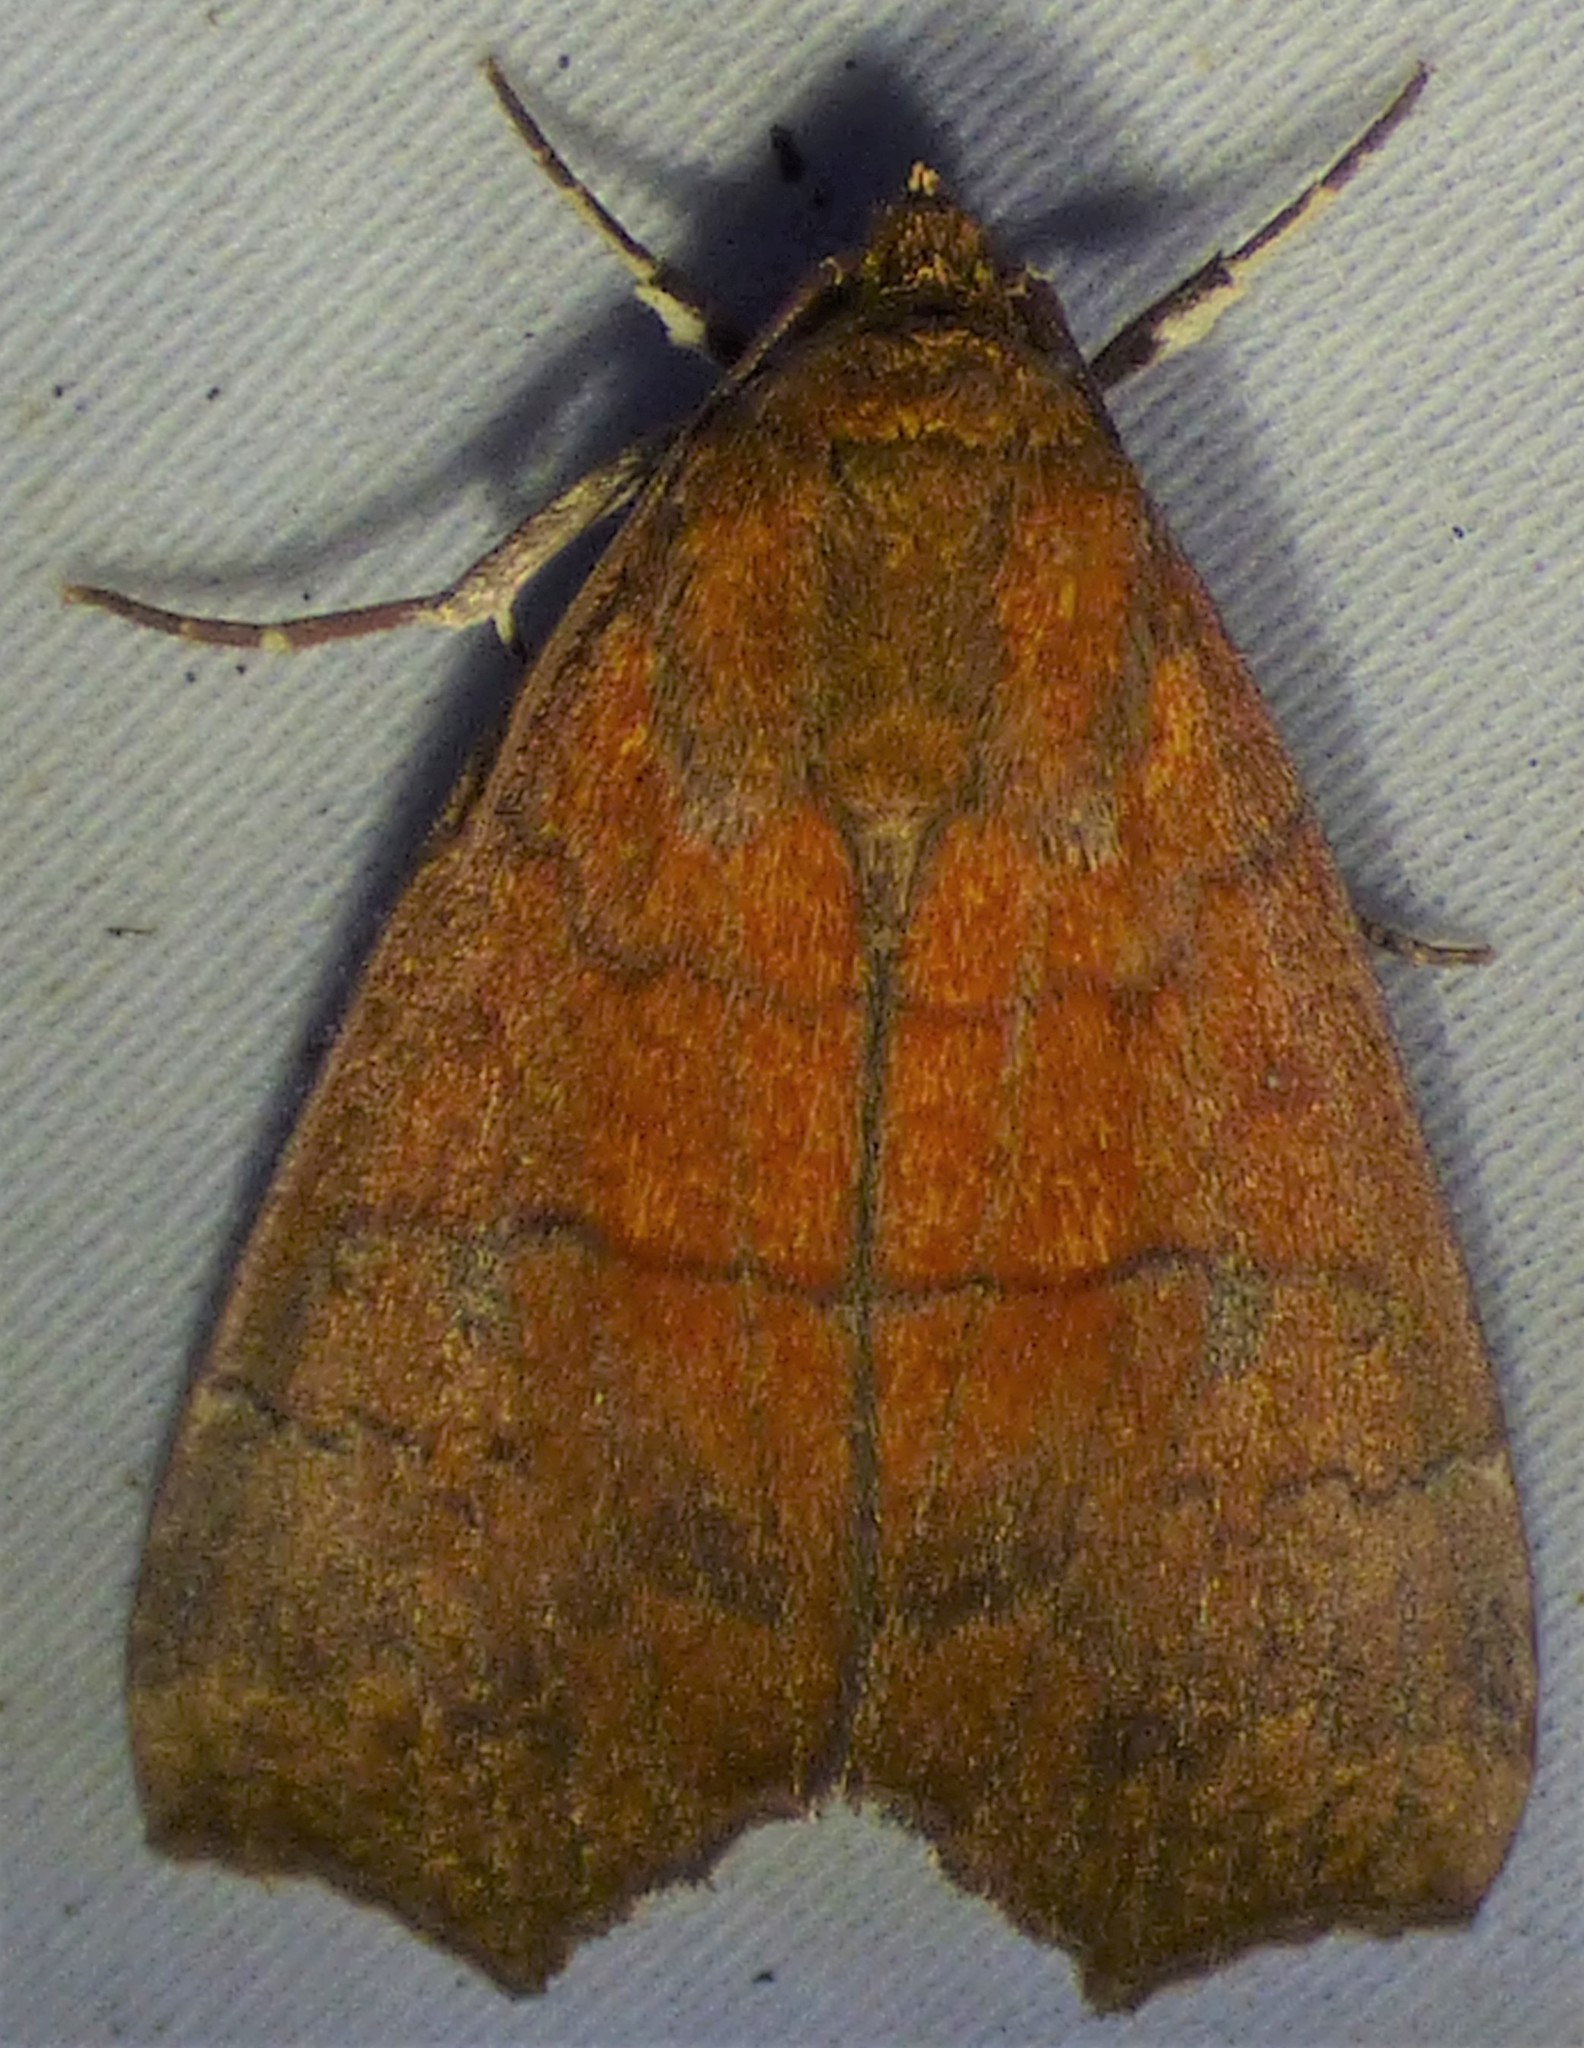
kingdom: Animalia
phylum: Arthropoda
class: Insecta
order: Lepidoptera
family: Erebidae
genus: Rusicada
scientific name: Rusicada privata
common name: Hibiscus leaf caterpillar moth
